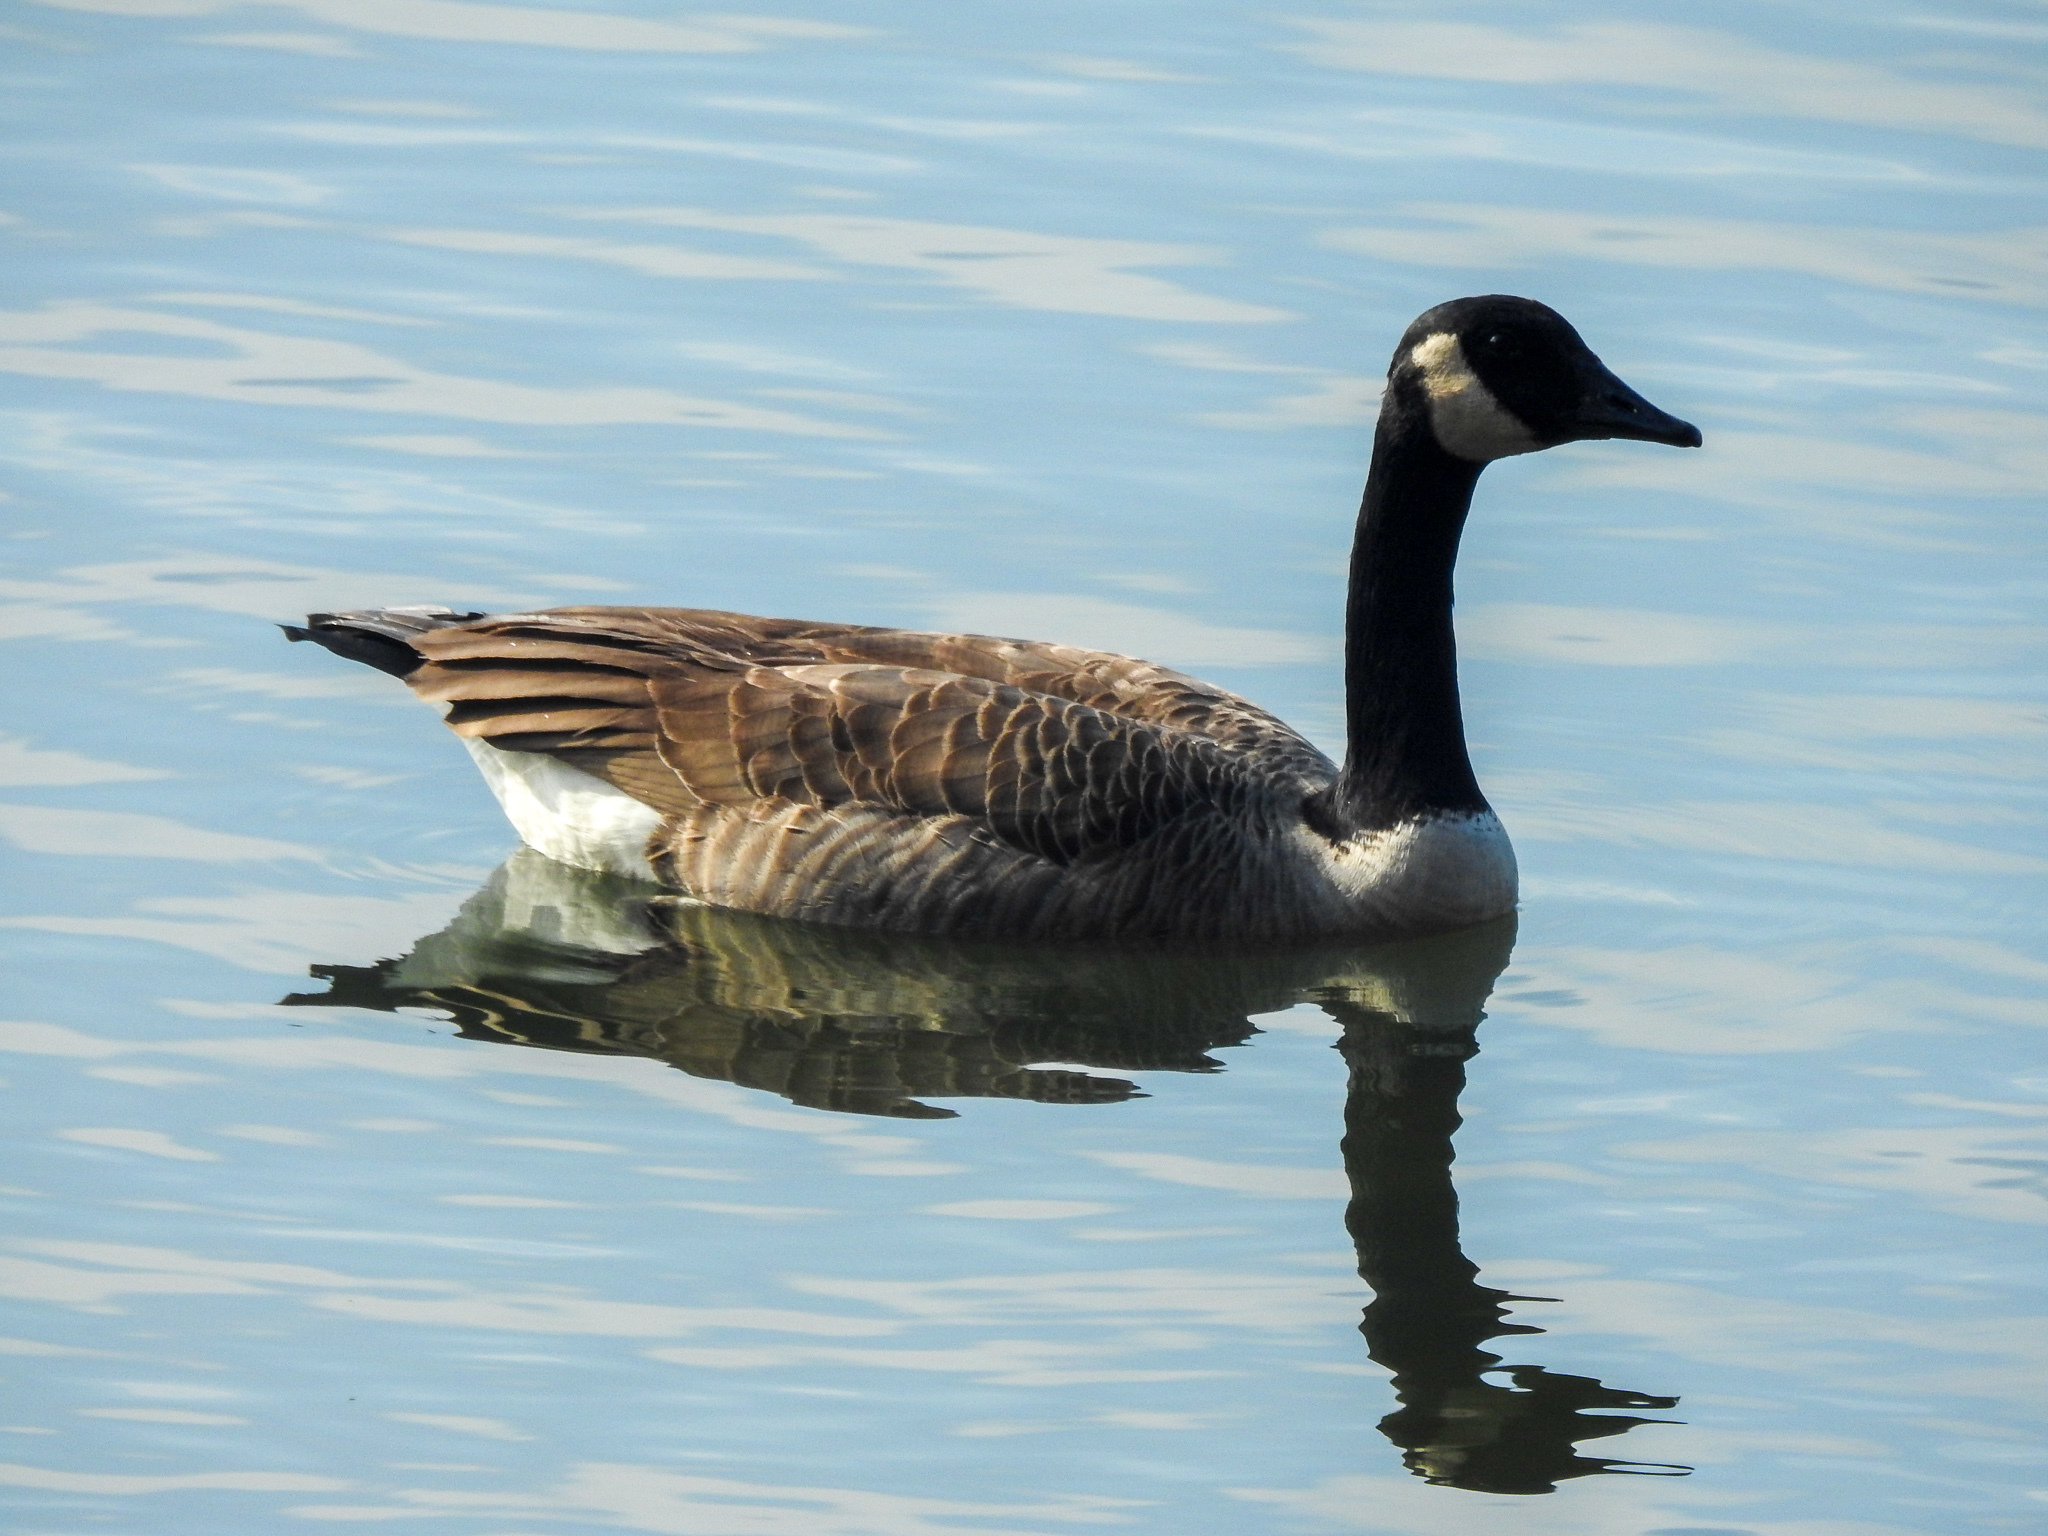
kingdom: Animalia
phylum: Chordata
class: Aves
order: Anseriformes
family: Anatidae
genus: Branta
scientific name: Branta canadensis
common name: Canada goose
